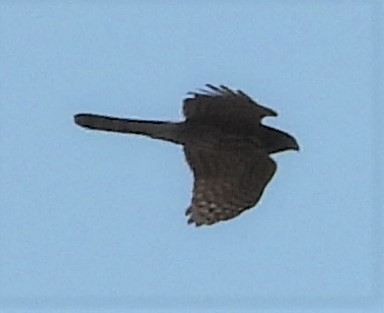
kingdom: Animalia
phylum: Chordata
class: Aves
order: Accipitriformes
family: Accipitridae
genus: Accipiter
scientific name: Accipiter cooperii
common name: Cooper's hawk
